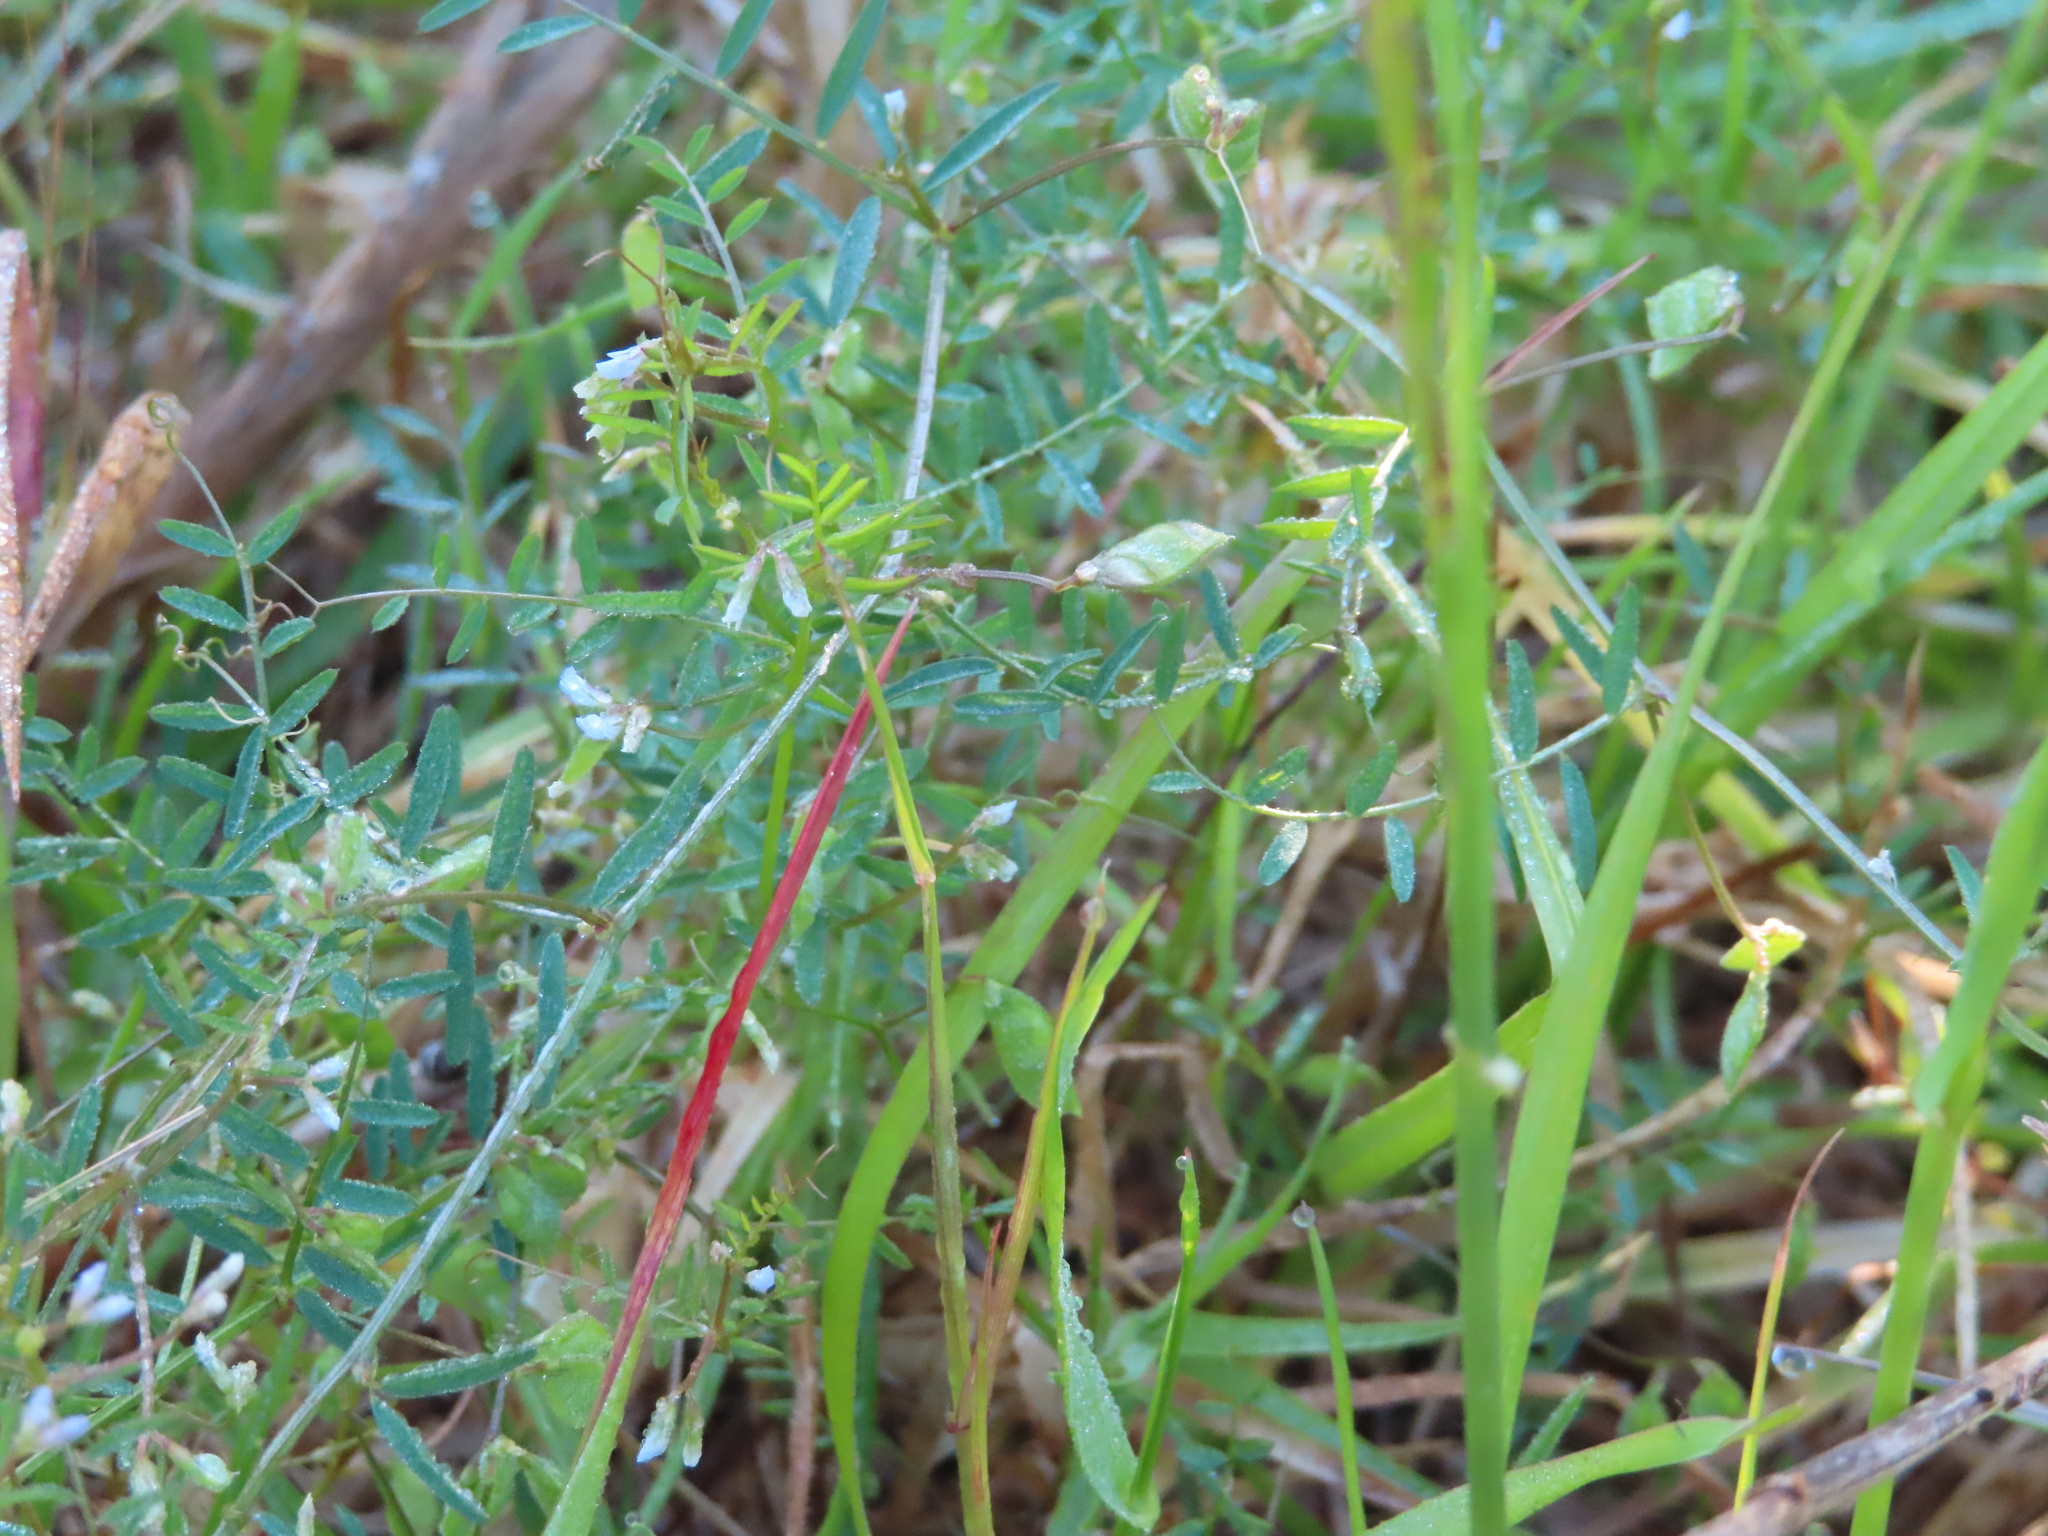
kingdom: Plantae
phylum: Tracheophyta
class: Magnoliopsida
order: Fabales
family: Fabaceae
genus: Vicia
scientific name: Vicia hirsuta
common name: Tiny vetch
